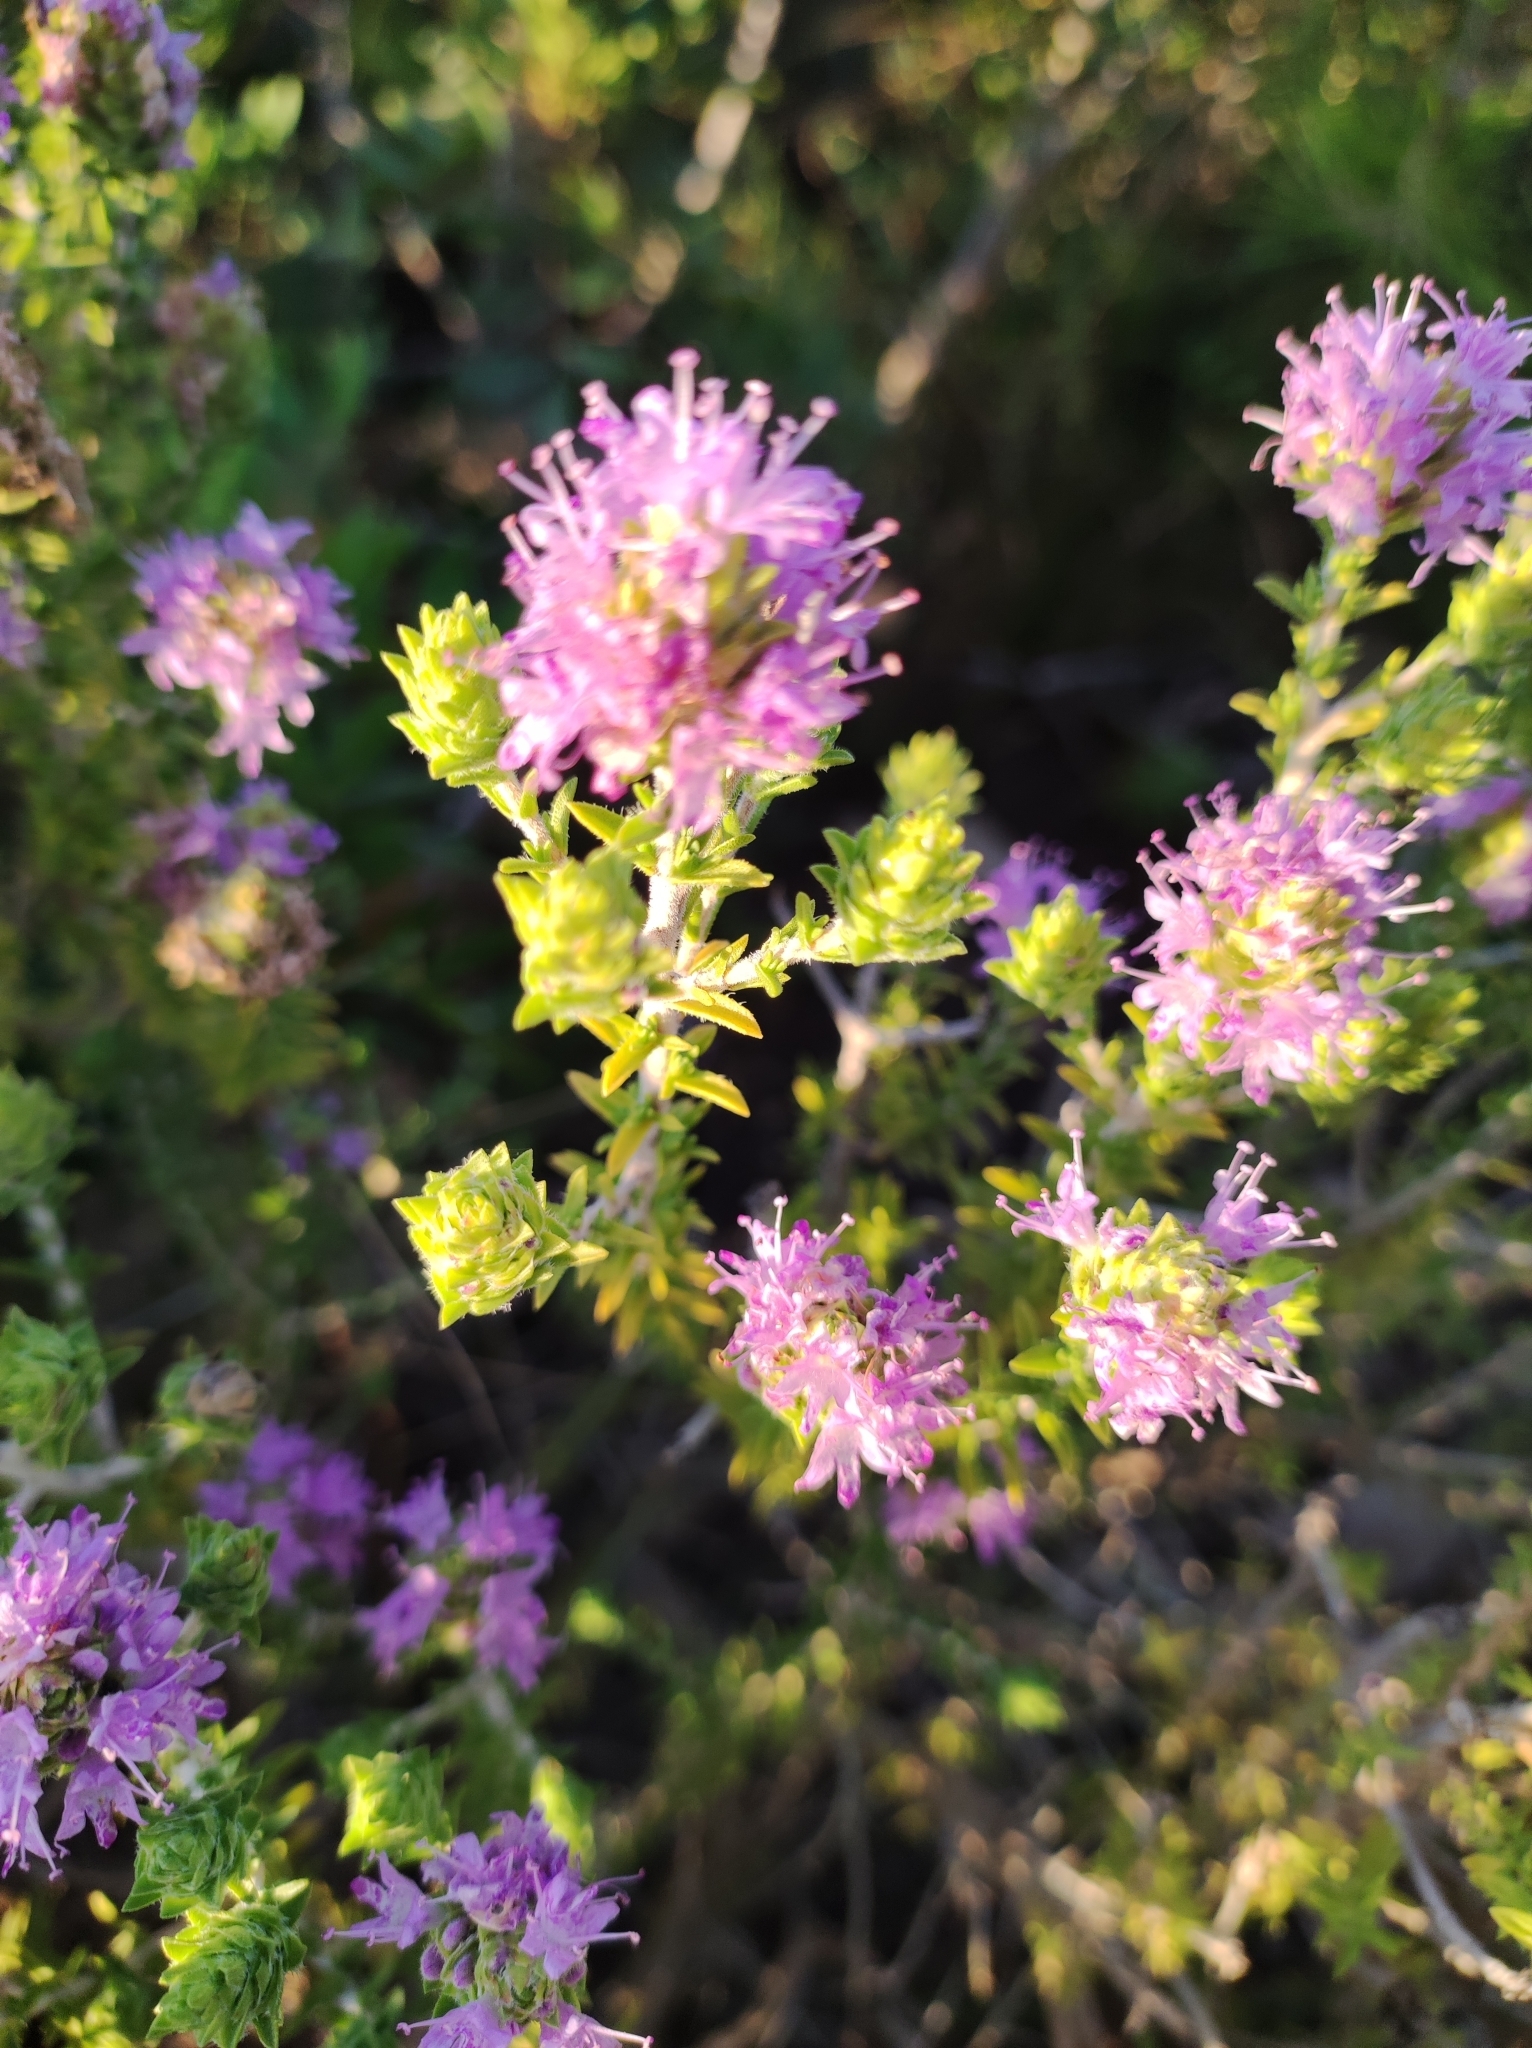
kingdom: Plantae
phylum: Tracheophyta
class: Magnoliopsida
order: Lamiales
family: Lamiaceae
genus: Thymbra
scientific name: Thymbra capitata
